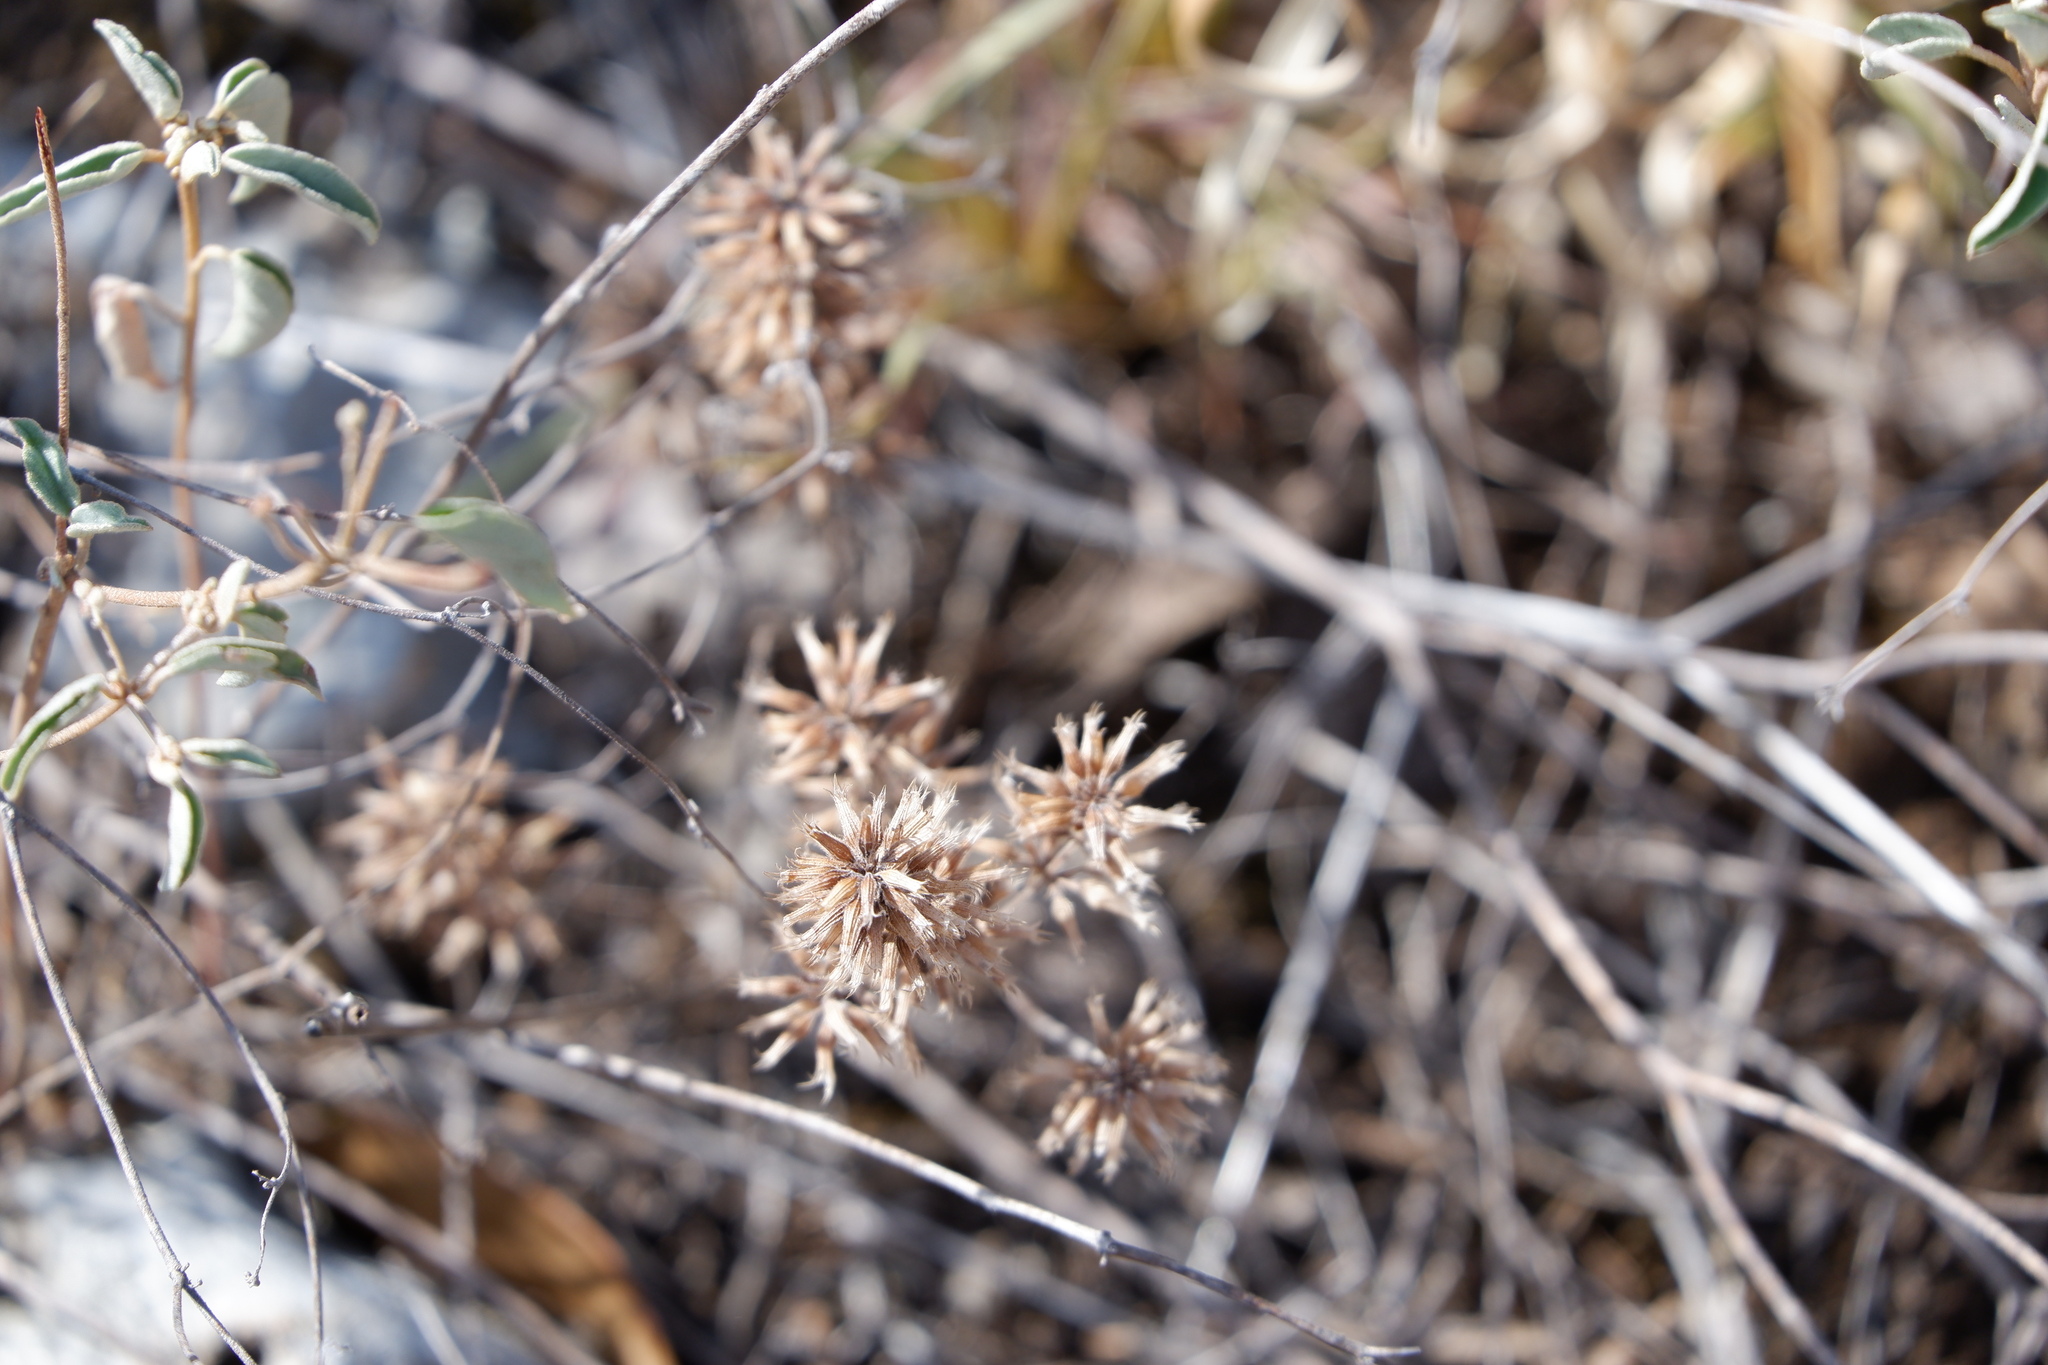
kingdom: Plantae
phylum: Tracheophyta
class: Magnoliopsida
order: Lamiales
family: Lamiaceae
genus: Hedeoma
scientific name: Hedeoma acinoides
